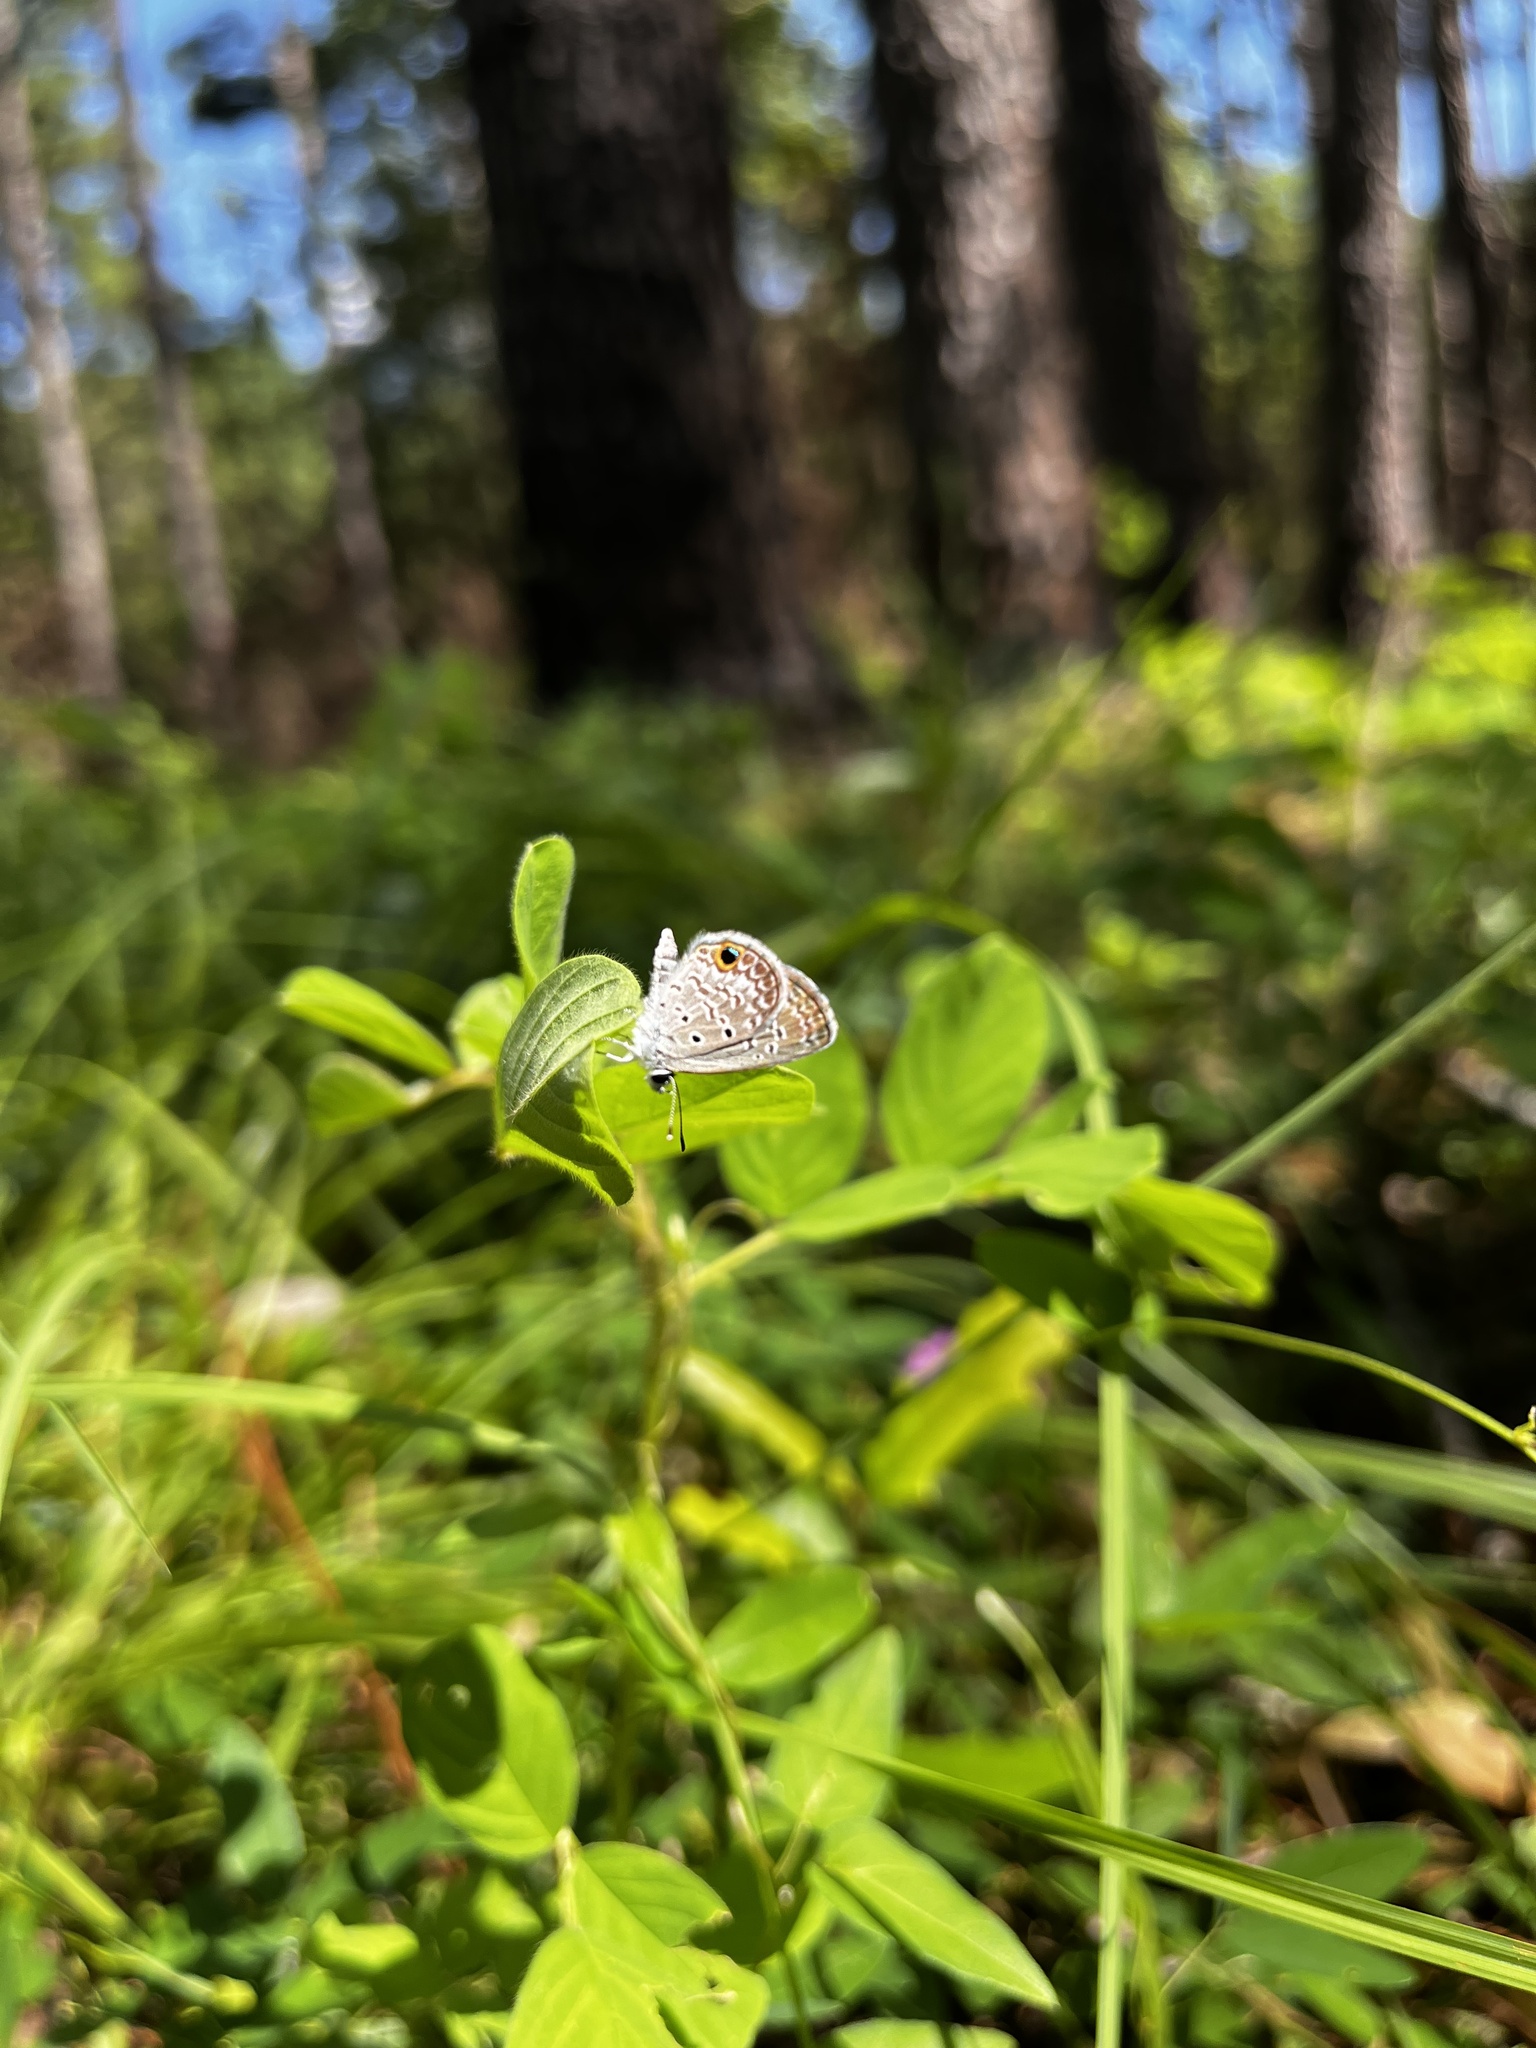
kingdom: Animalia
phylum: Arthropoda
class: Insecta
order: Lepidoptera
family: Lycaenidae
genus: Hemiargus
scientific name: Hemiargus ceraunus
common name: Ceraunus blue
